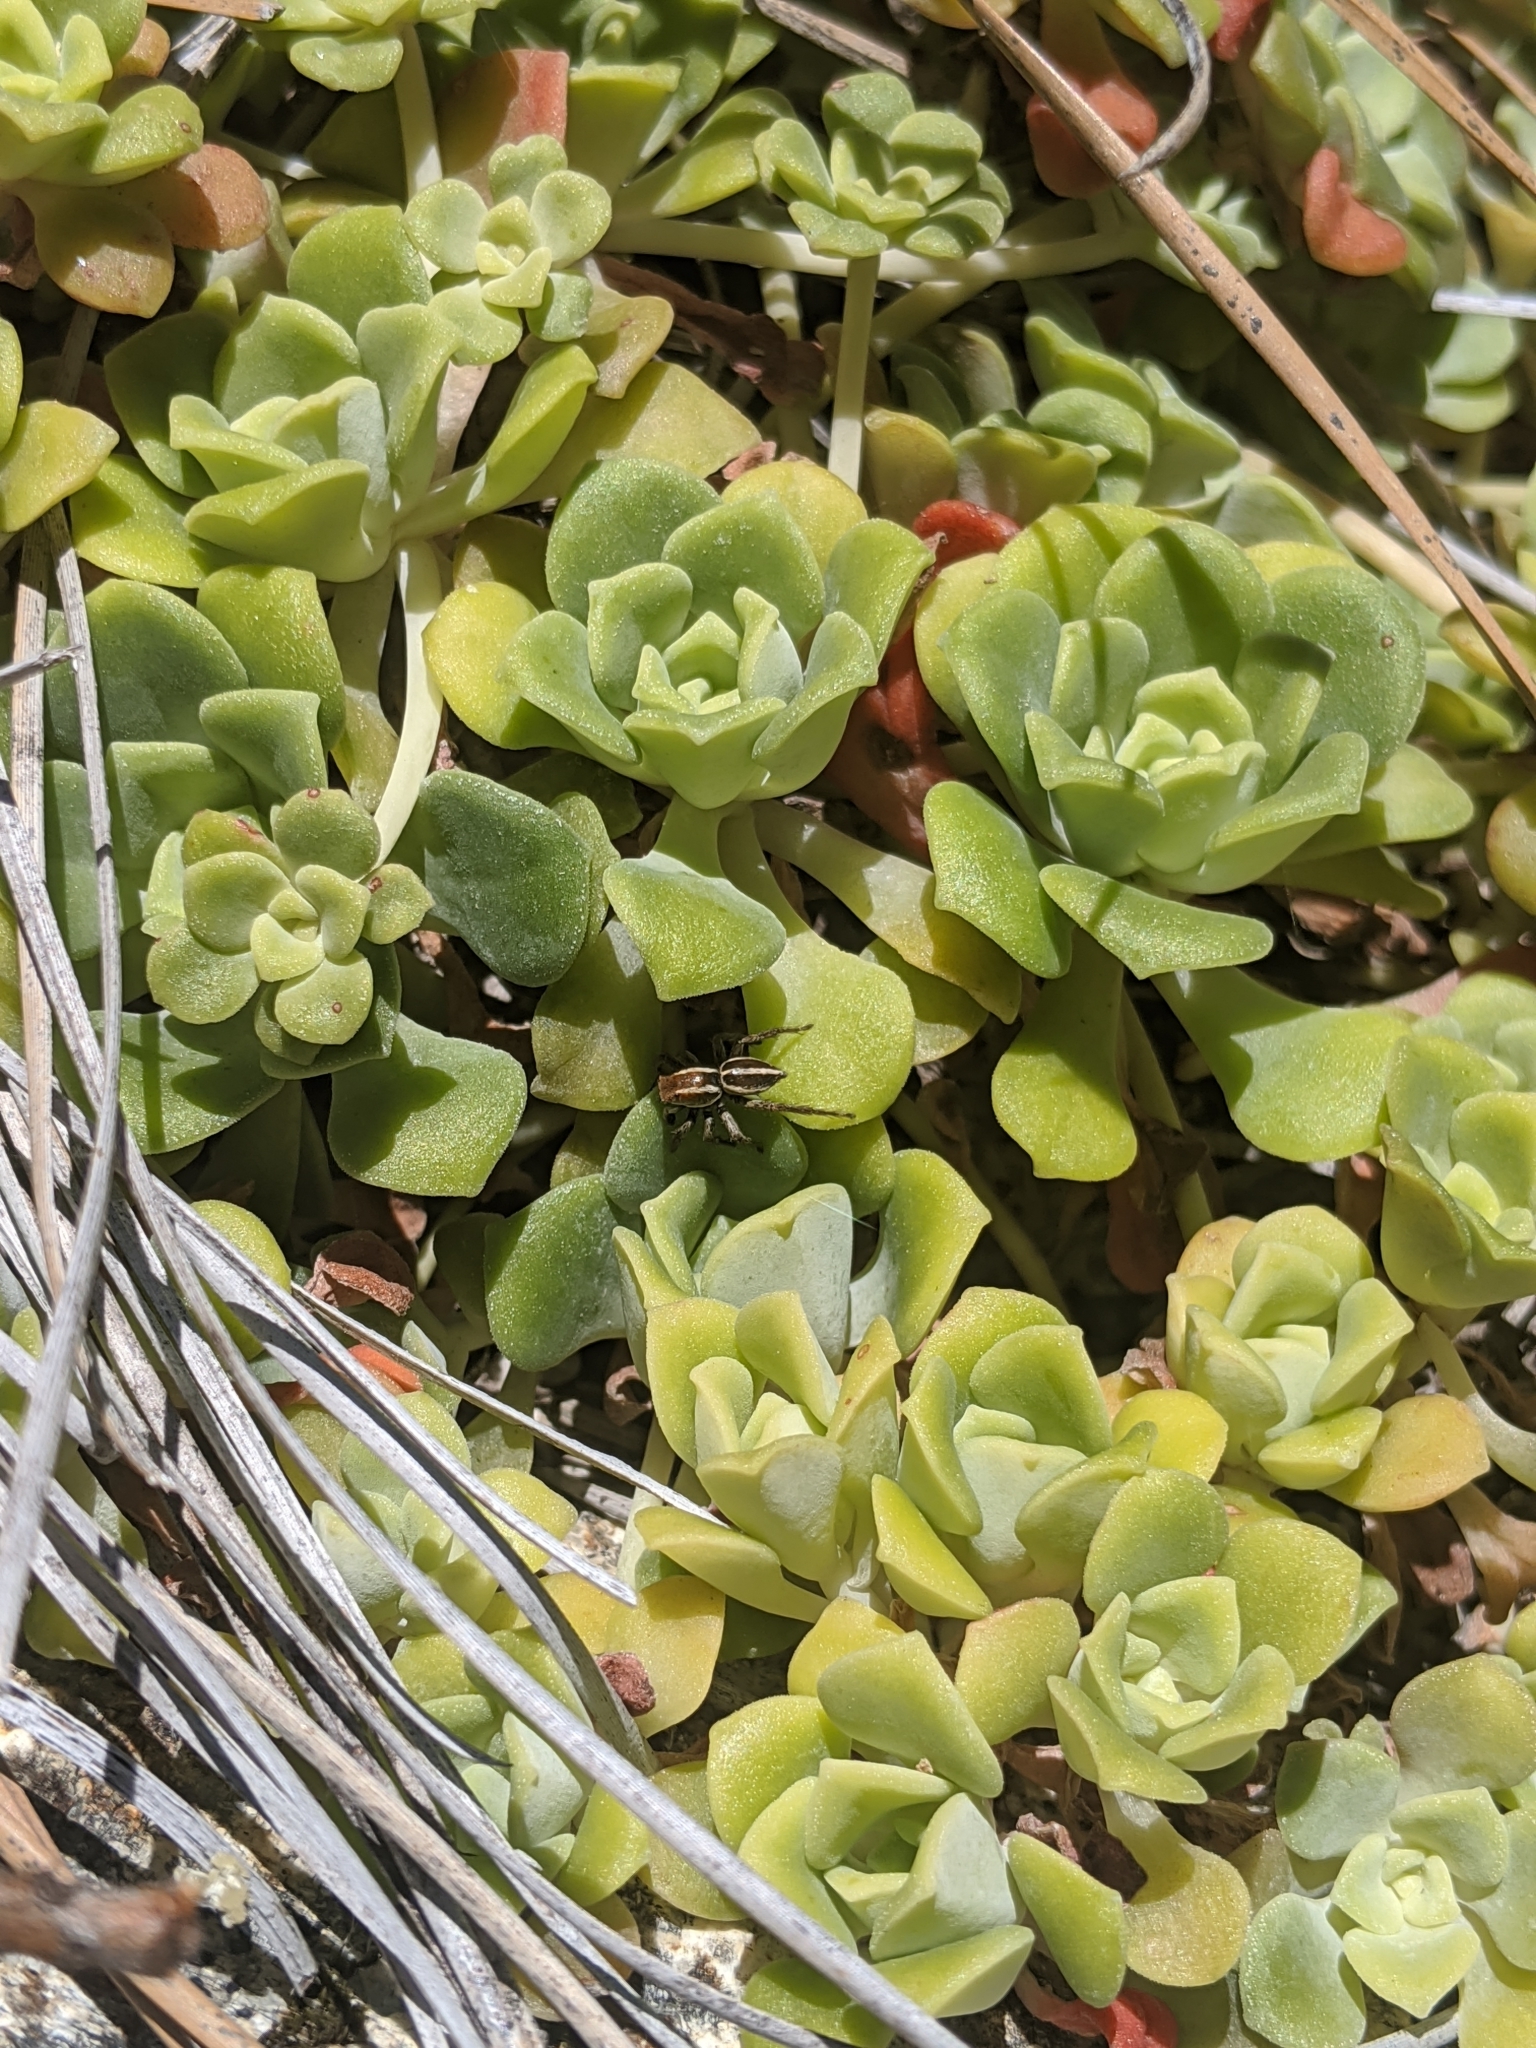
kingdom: Plantae
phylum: Tracheophyta
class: Magnoliopsida
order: Saxifragales
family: Crassulaceae
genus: Sedum
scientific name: Sedum spathulifolium
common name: Colorado stonecrop
